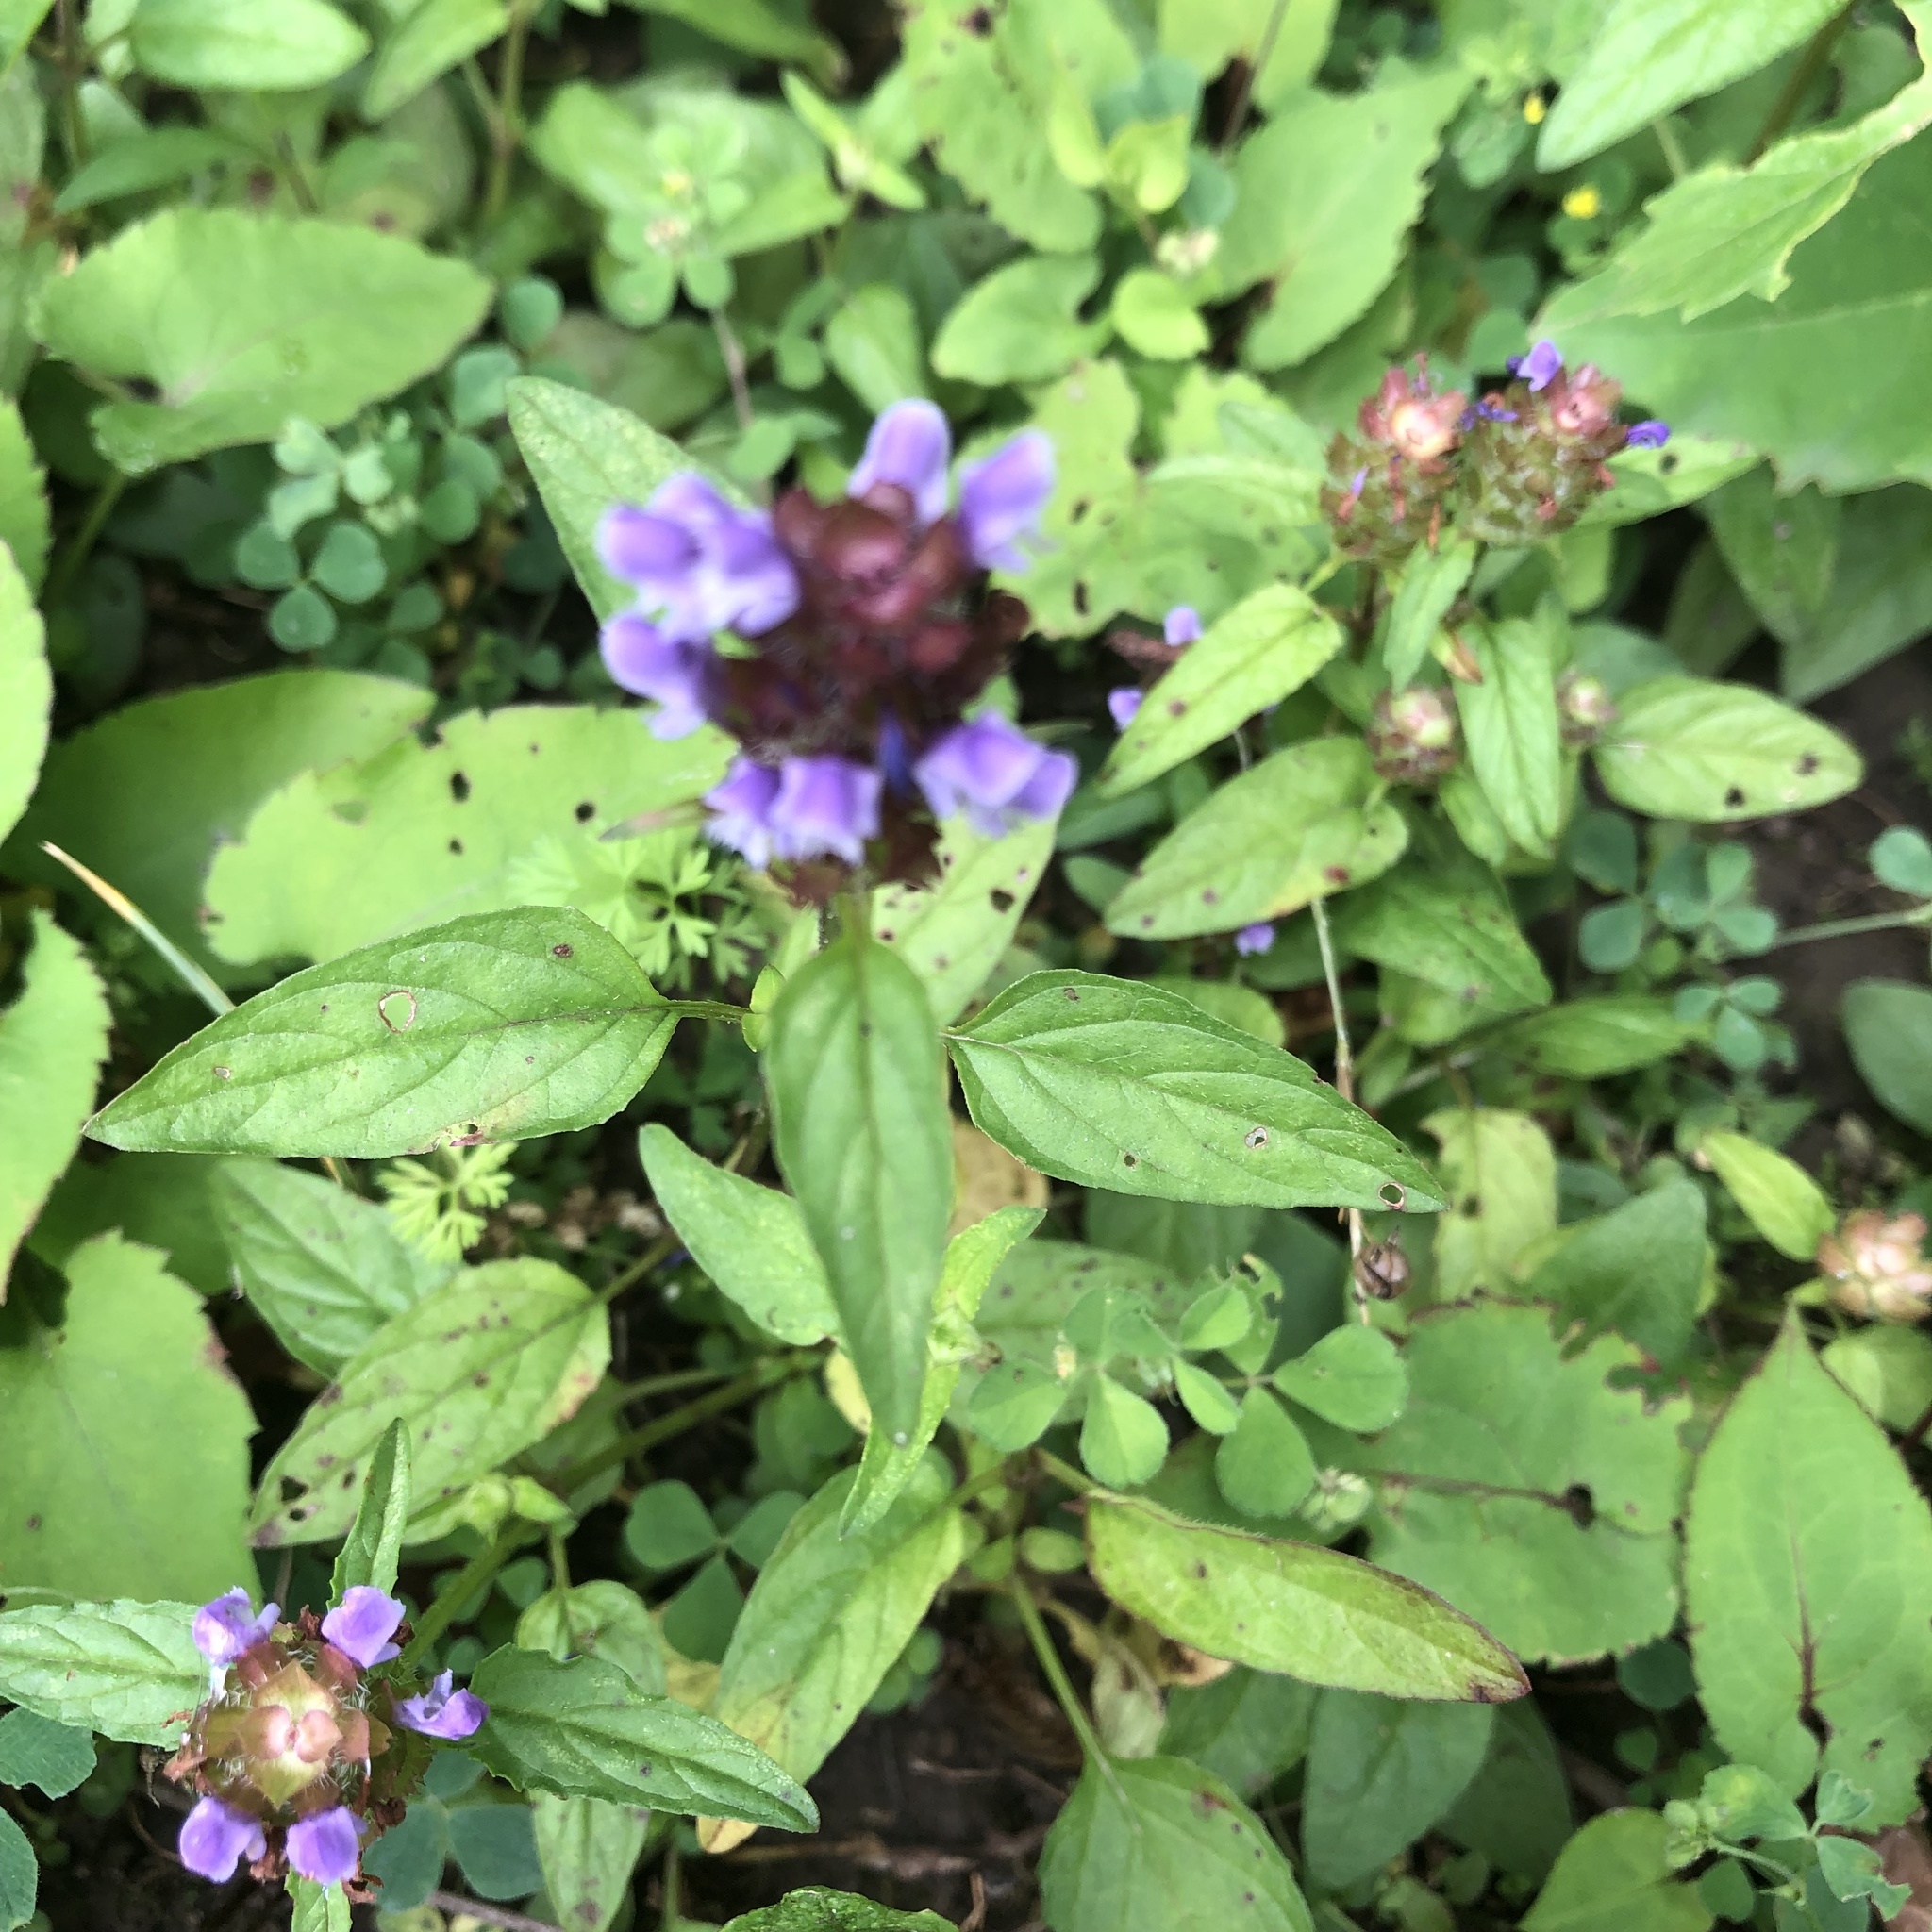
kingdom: Plantae
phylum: Tracheophyta
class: Magnoliopsida
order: Lamiales
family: Lamiaceae
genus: Prunella
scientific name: Prunella vulgaris
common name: Heal-all
